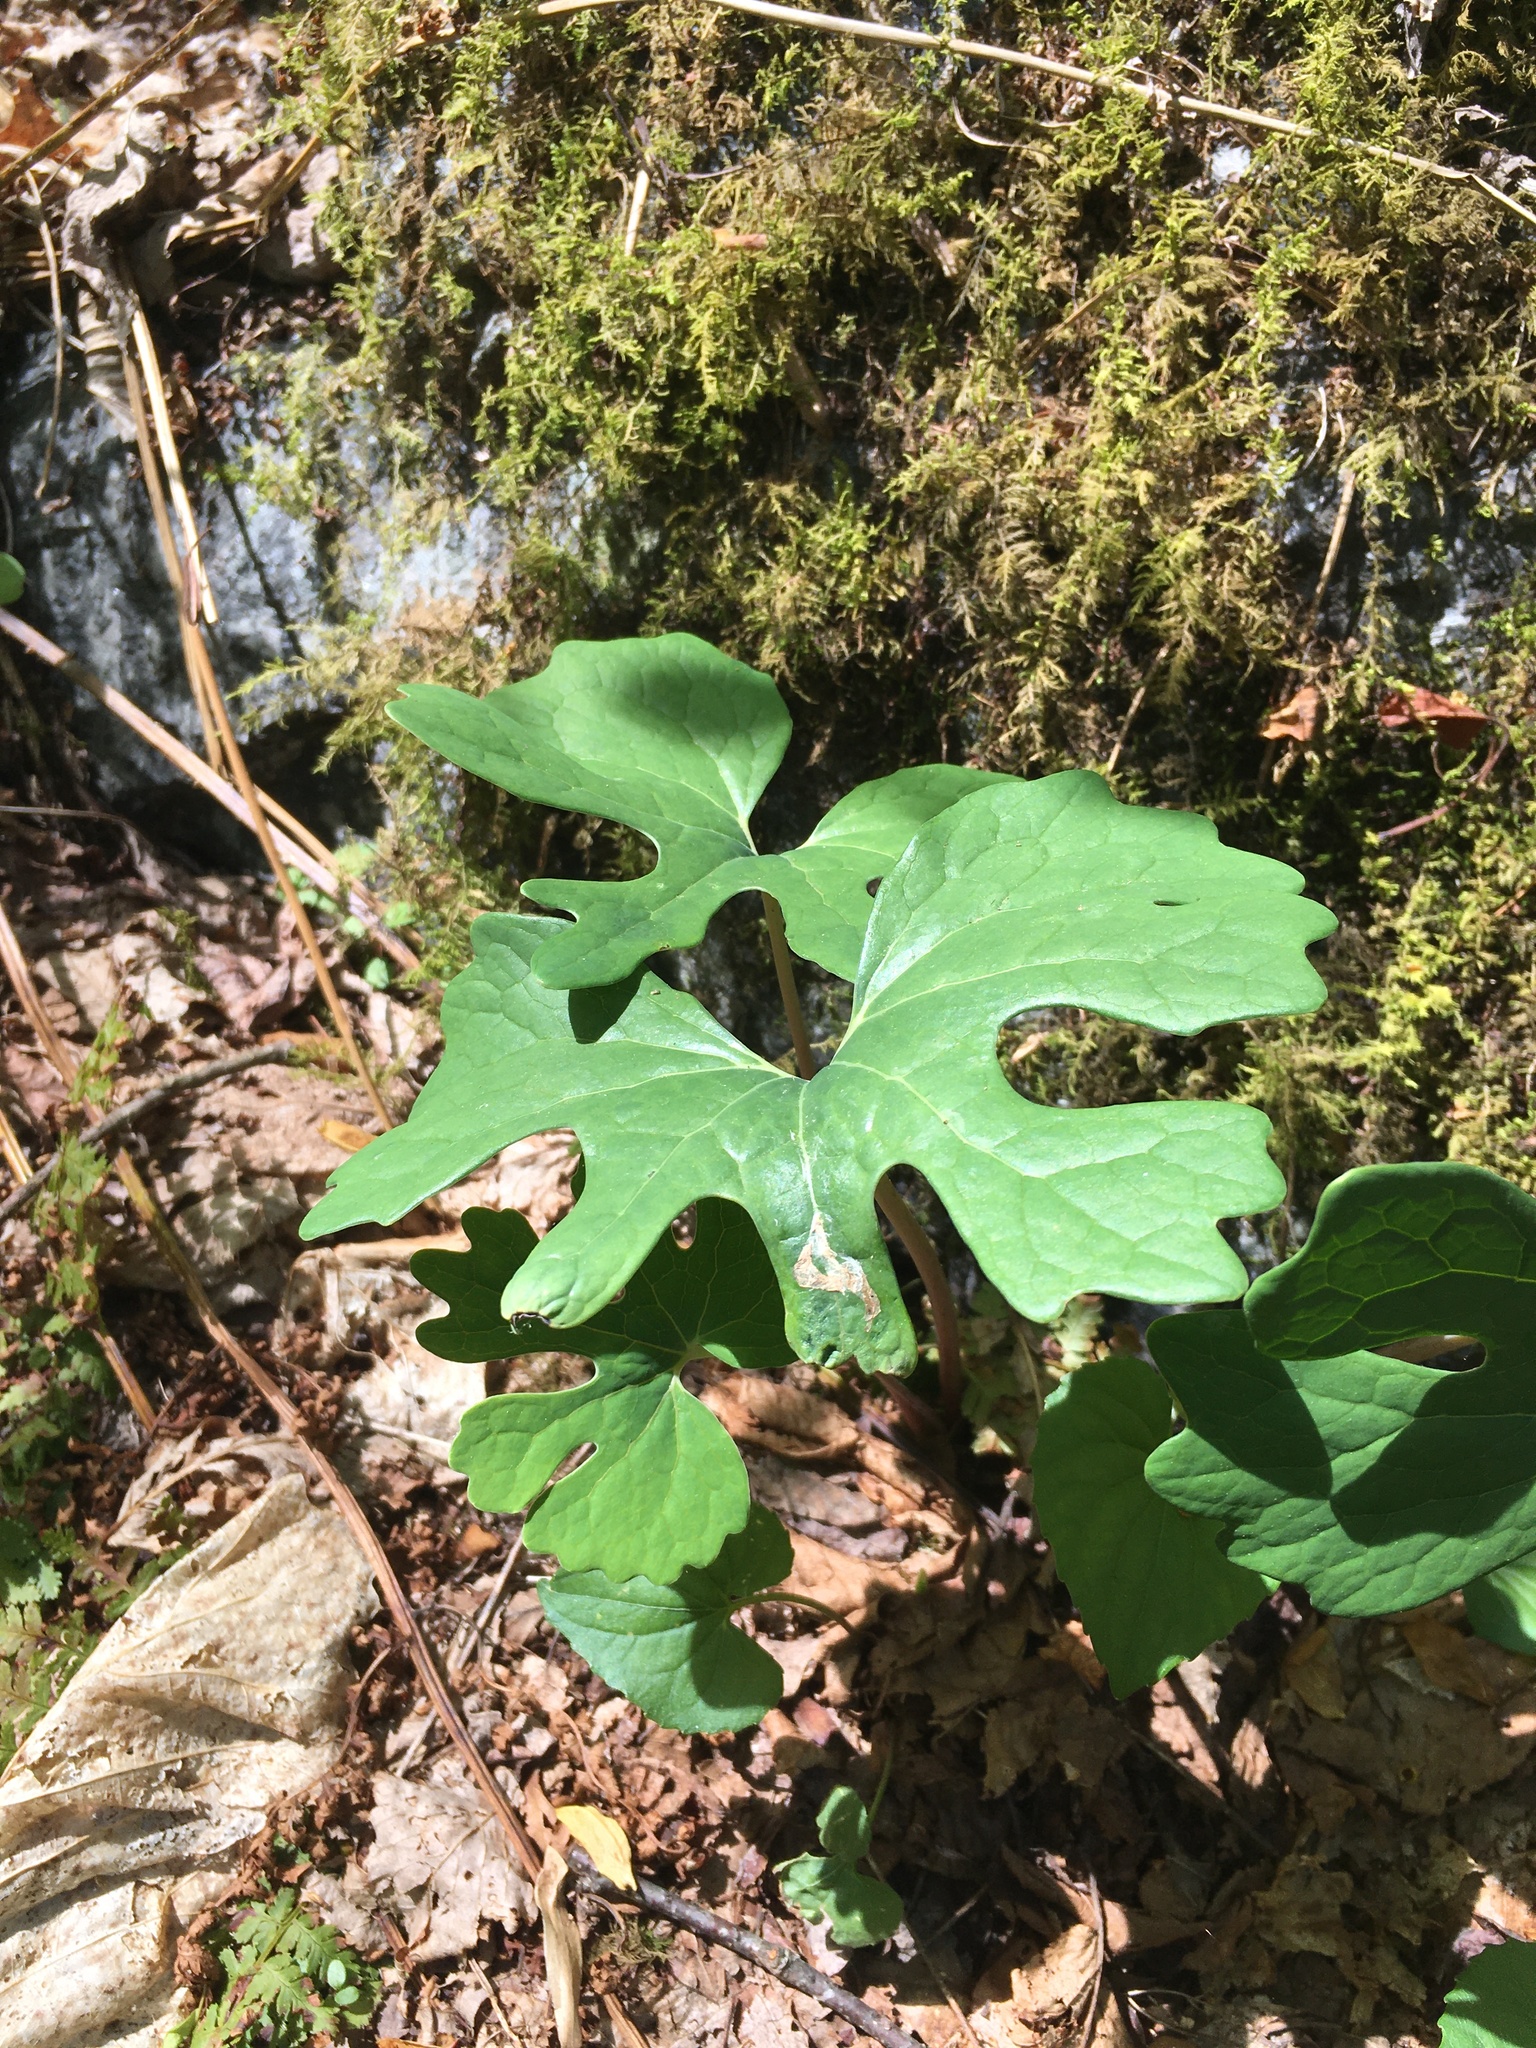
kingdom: Plantae
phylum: Tracheophyta
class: Magnoliopsida
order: Ranunculales
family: Papaveraceae
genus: Sanguinaria
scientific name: Sanguinaria canadensis
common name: Bloodroot
